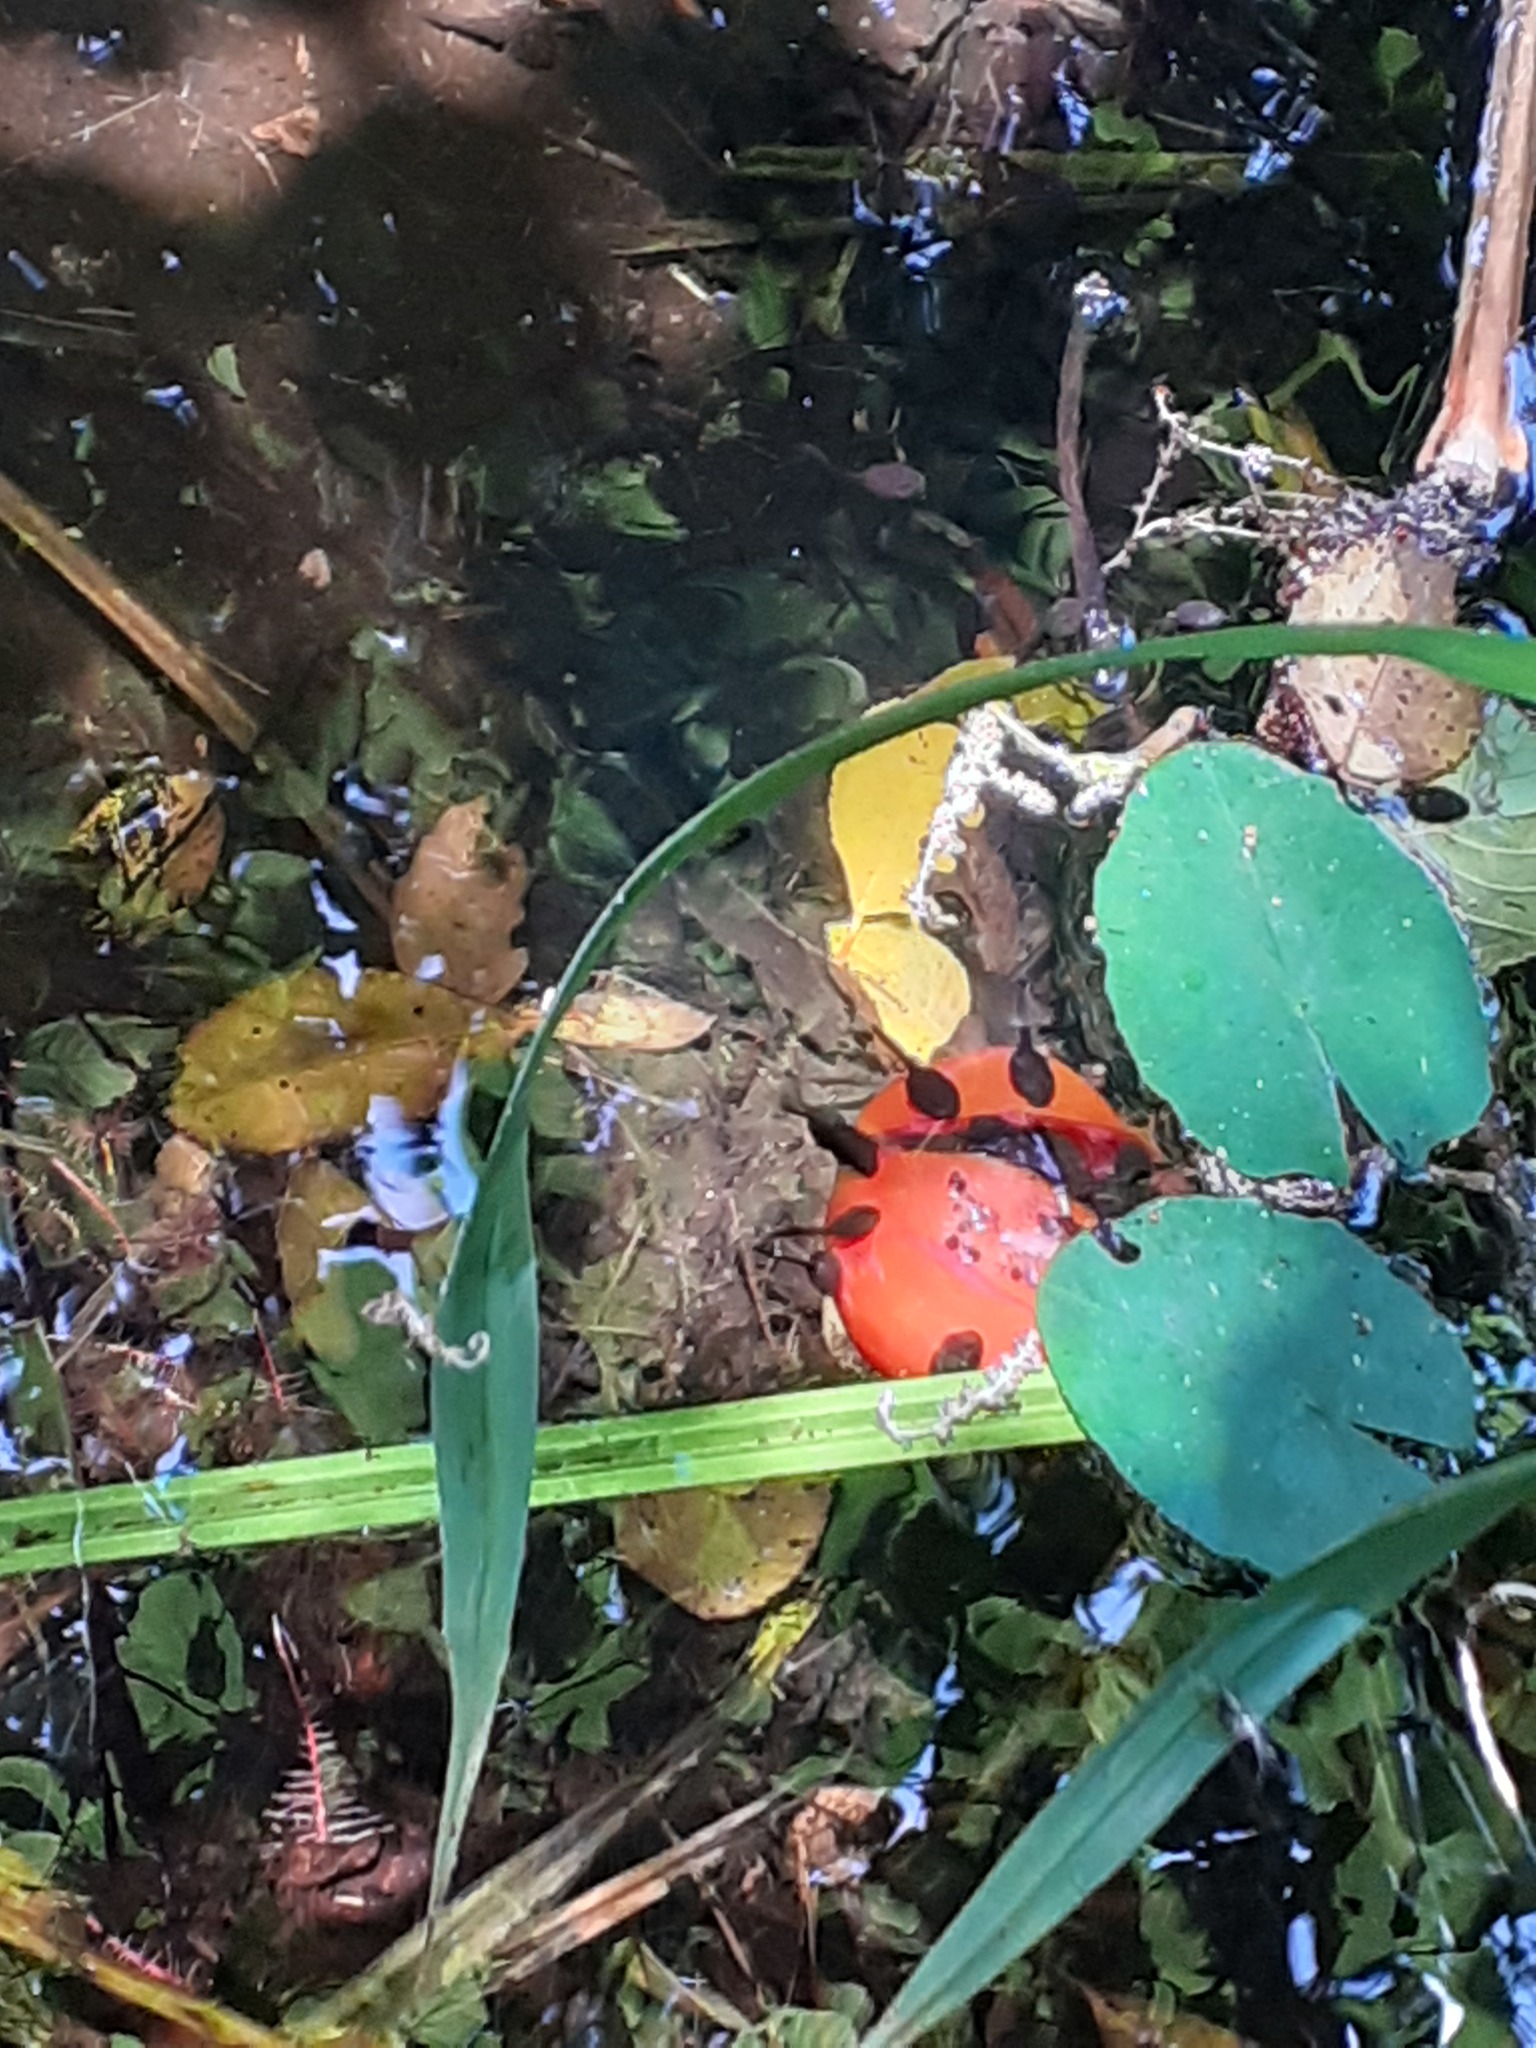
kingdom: Animalia
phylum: Chordata
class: Amphibia
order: Anura
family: Bufonidae
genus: Bufo
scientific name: Bufo bufo
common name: Common toad
